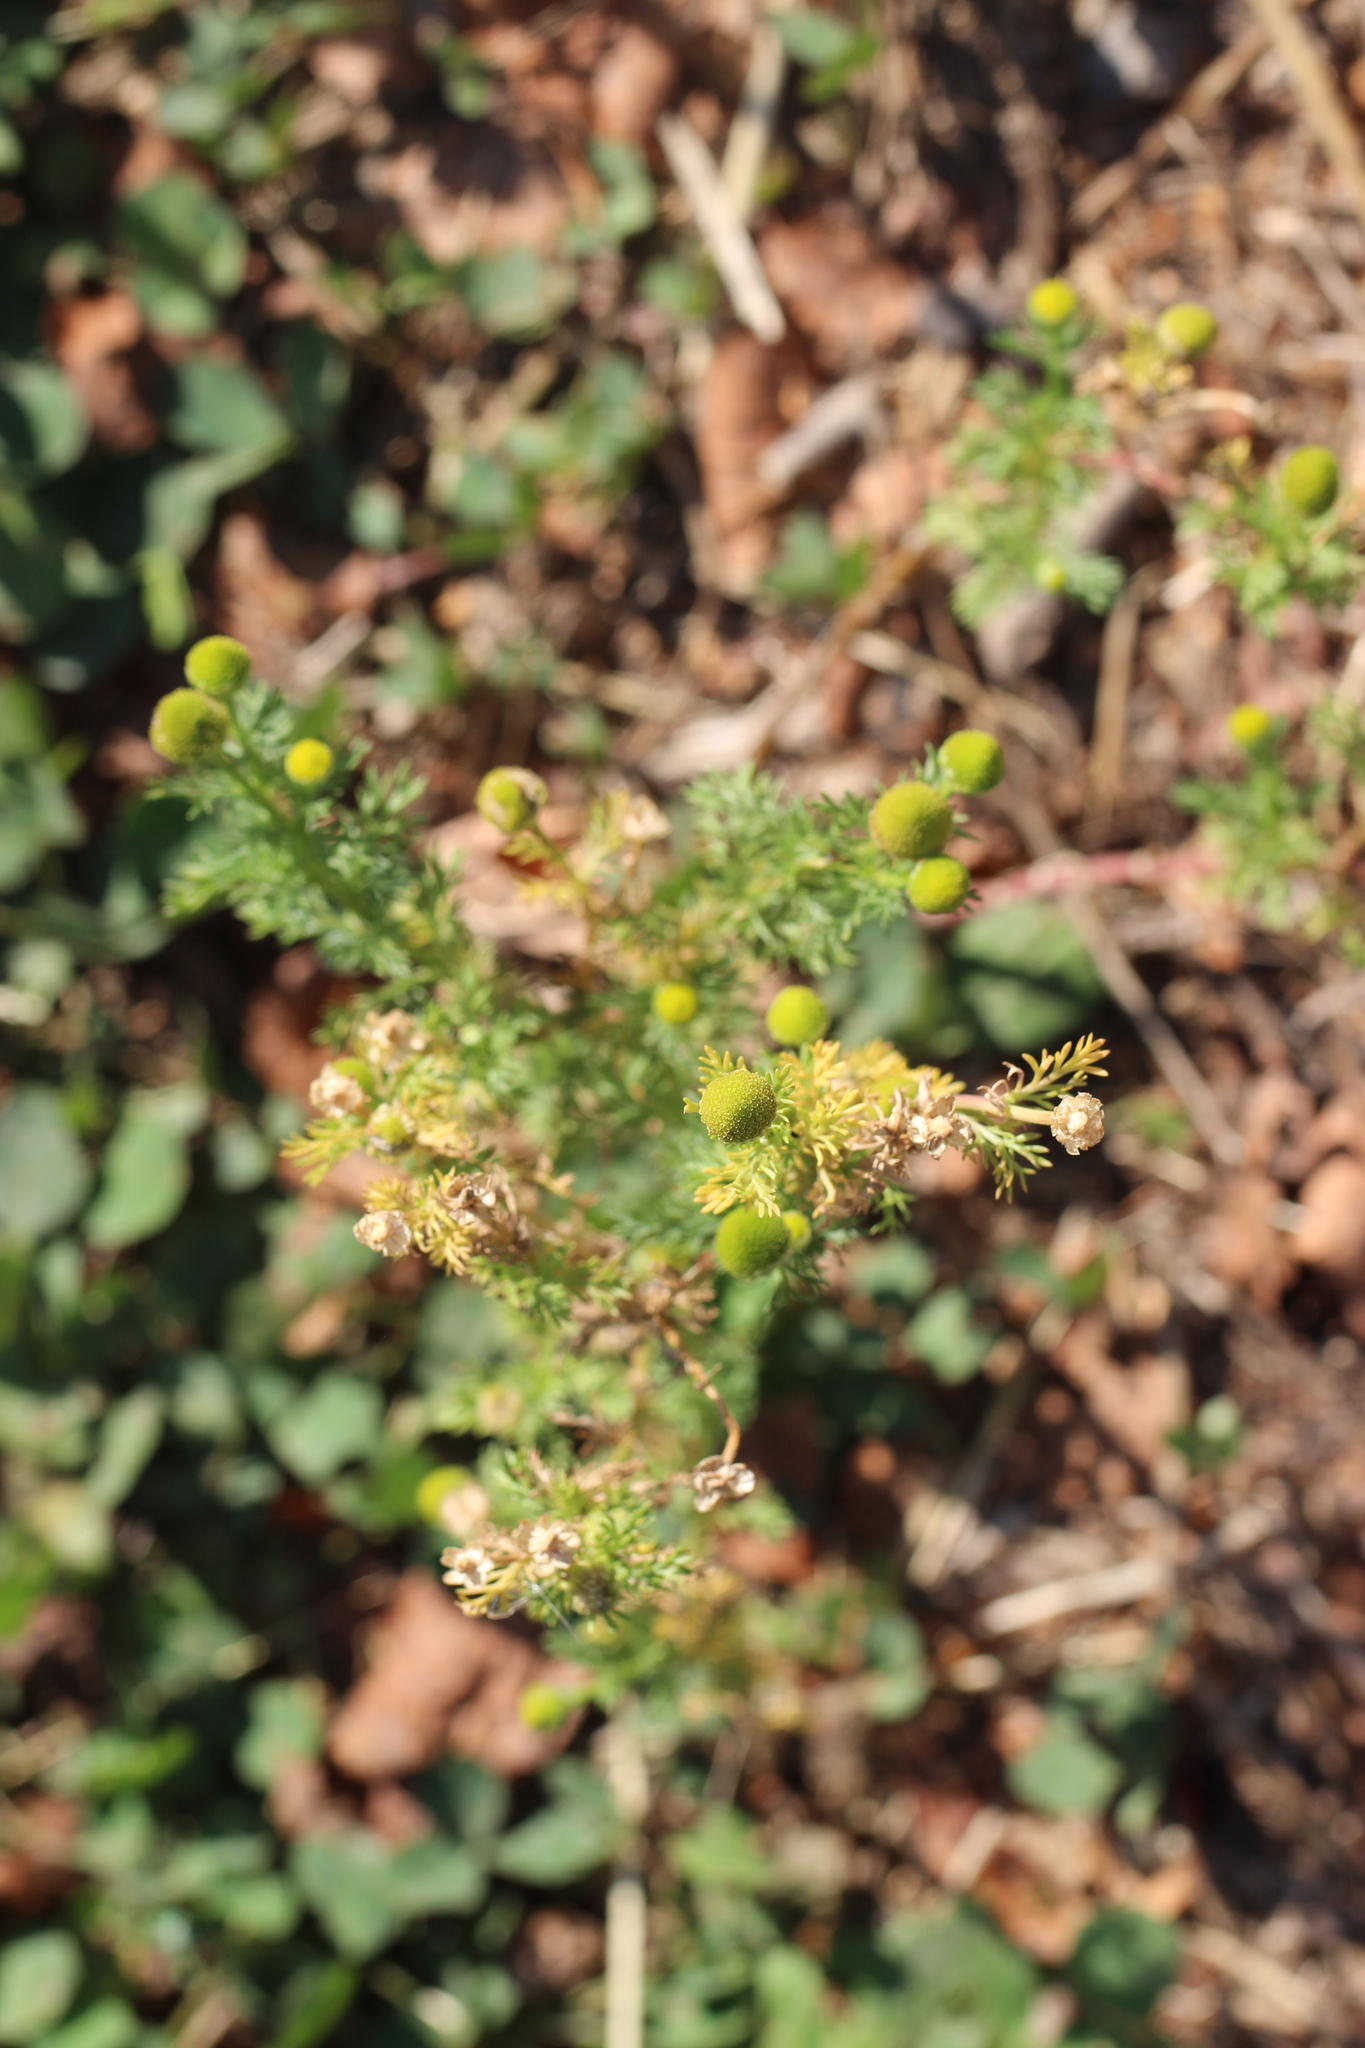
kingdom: Plantae
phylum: Tracheophyta
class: Magnoliopsida
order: Asterales
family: Asteraceae
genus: Matricaria
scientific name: Matricaria discoidea
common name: Disc mayweed
